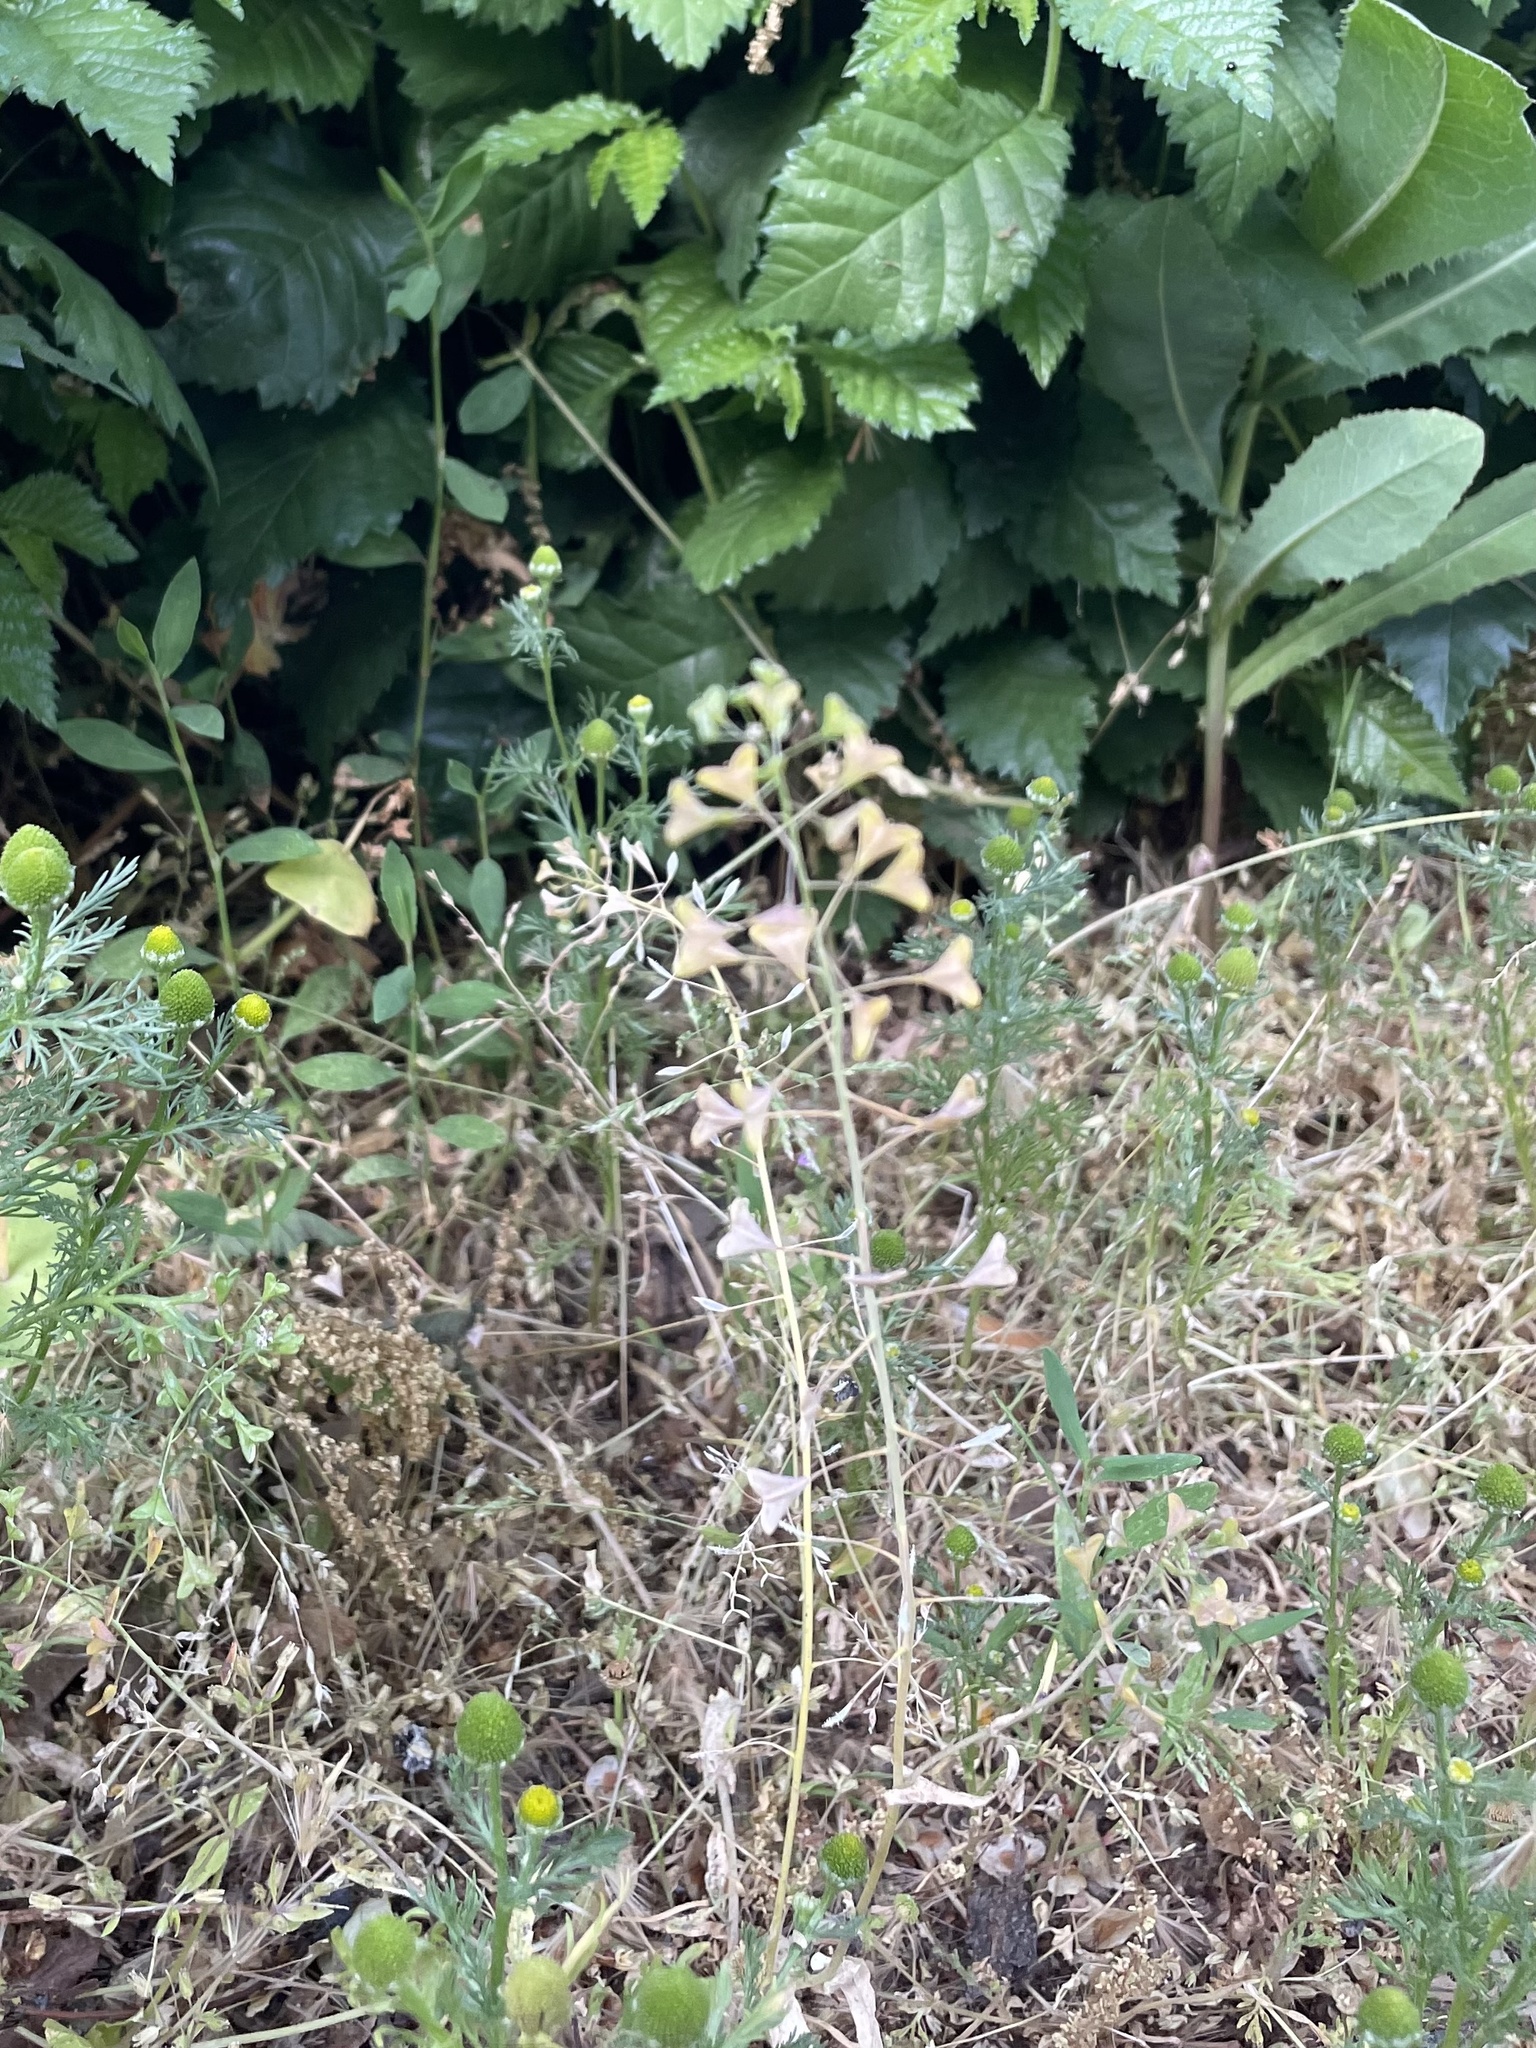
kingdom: Plantae
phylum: Tracheophyta
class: Magnoliopsida
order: Brassicales
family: Brassicaceae
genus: Capsella
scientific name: Capsella bursa-pastoris
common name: Shepherd's purse
